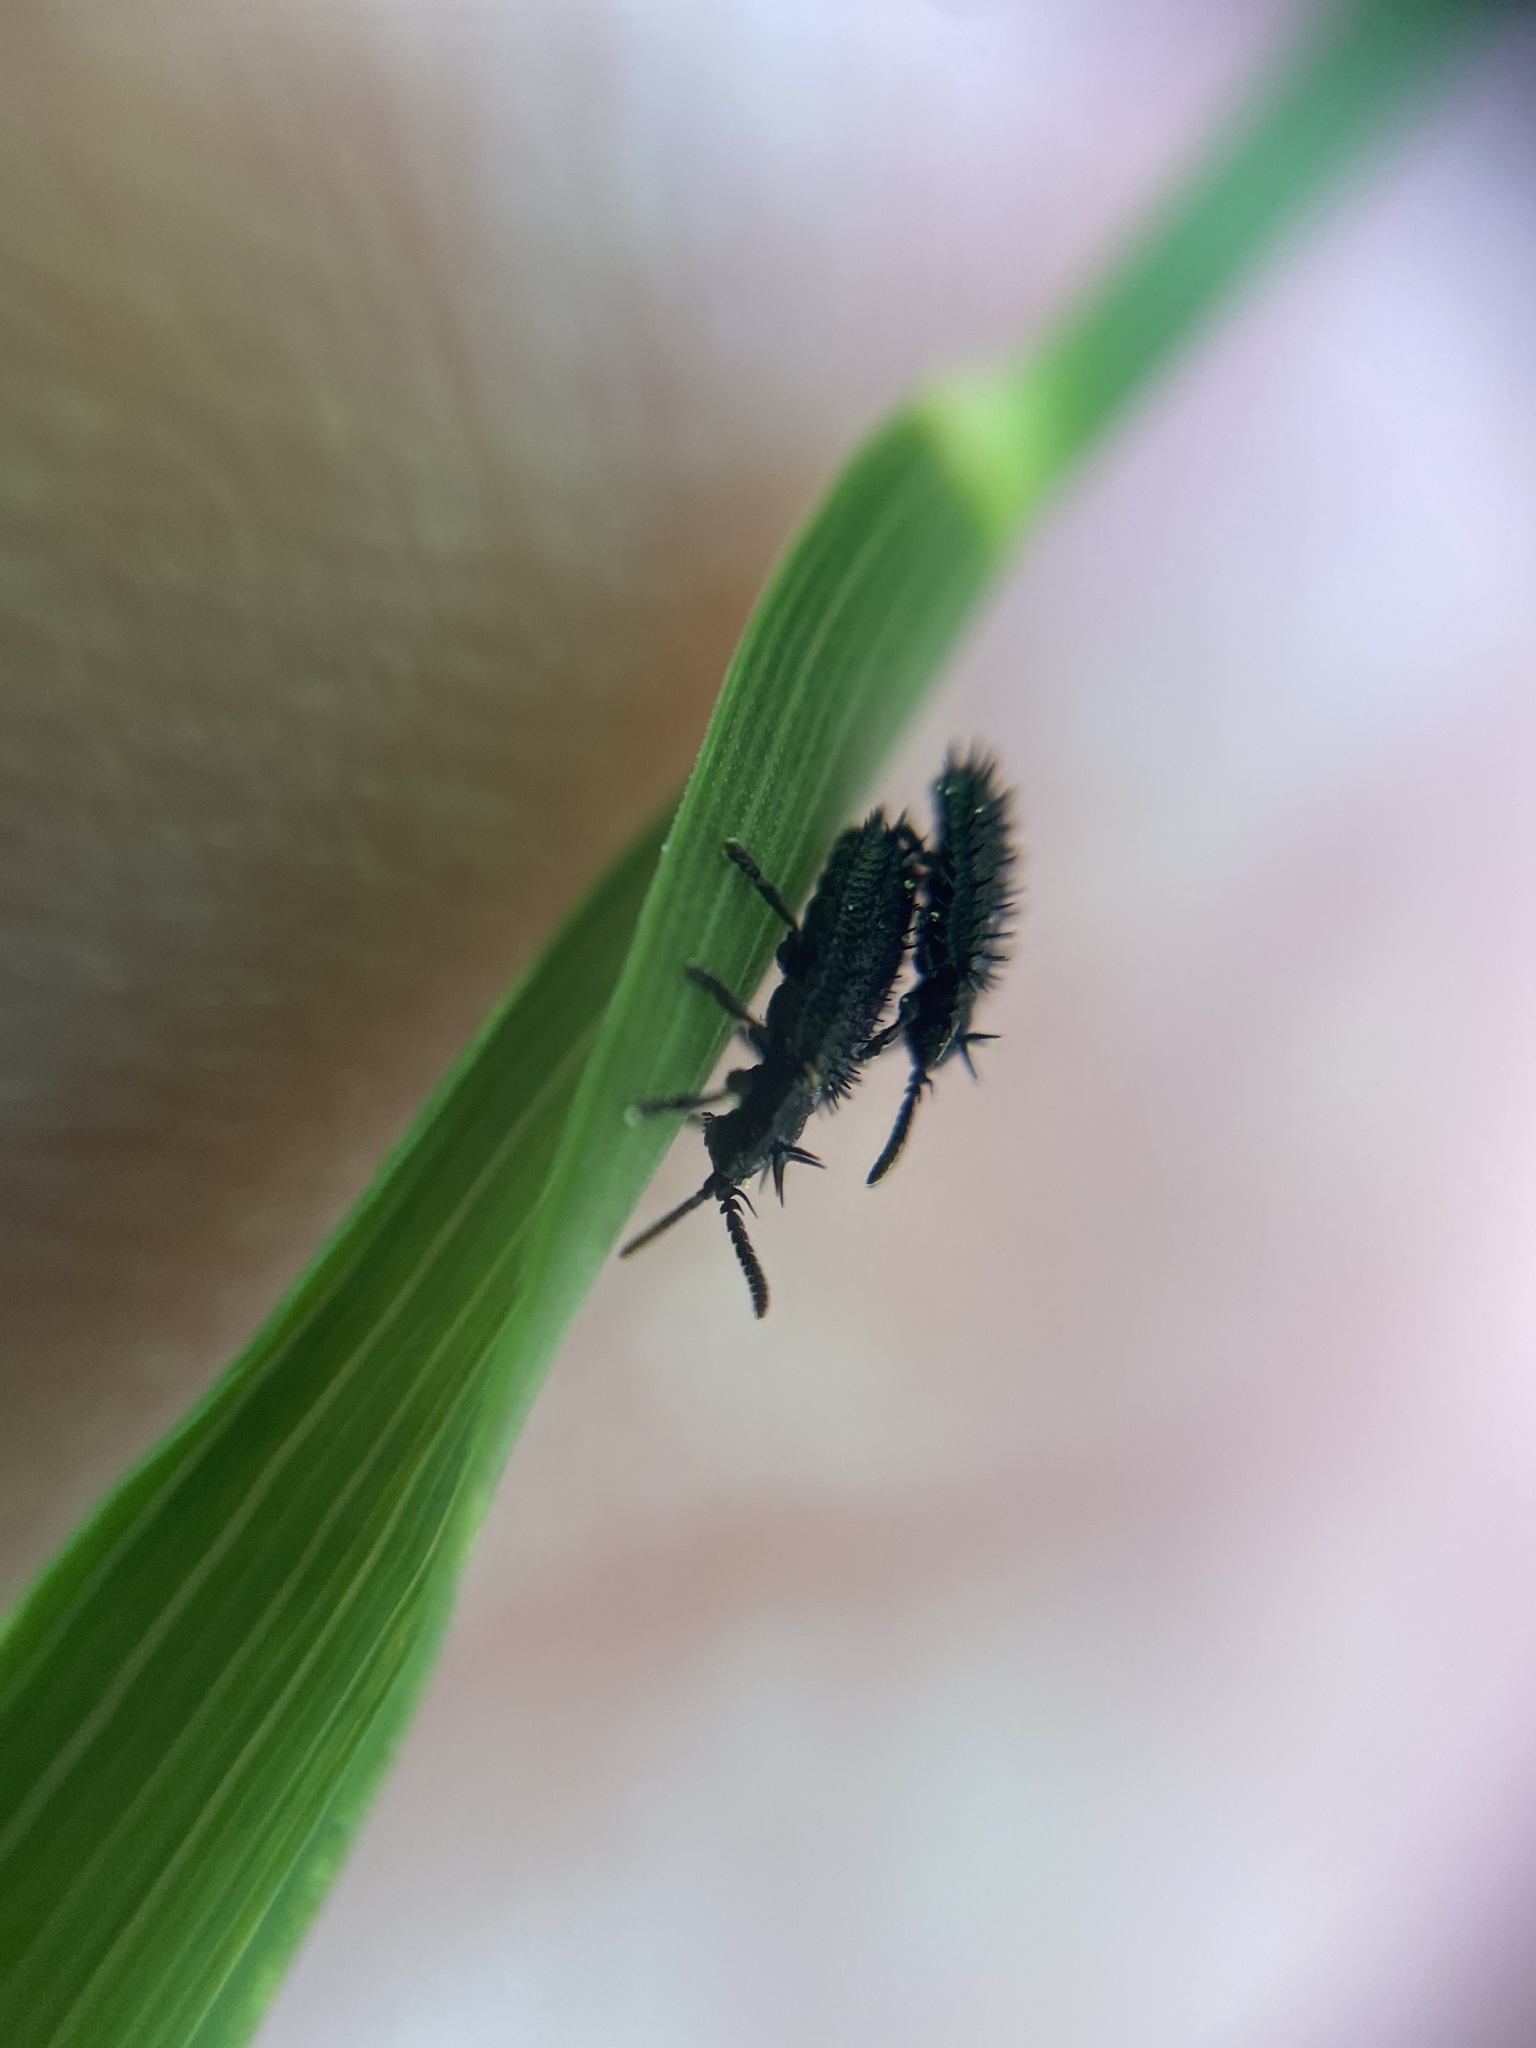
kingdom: Animalia
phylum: Arthropoda
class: Insecta
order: Coleoptera
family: Chrysomelidae
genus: Hispa
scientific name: Hispa atra
